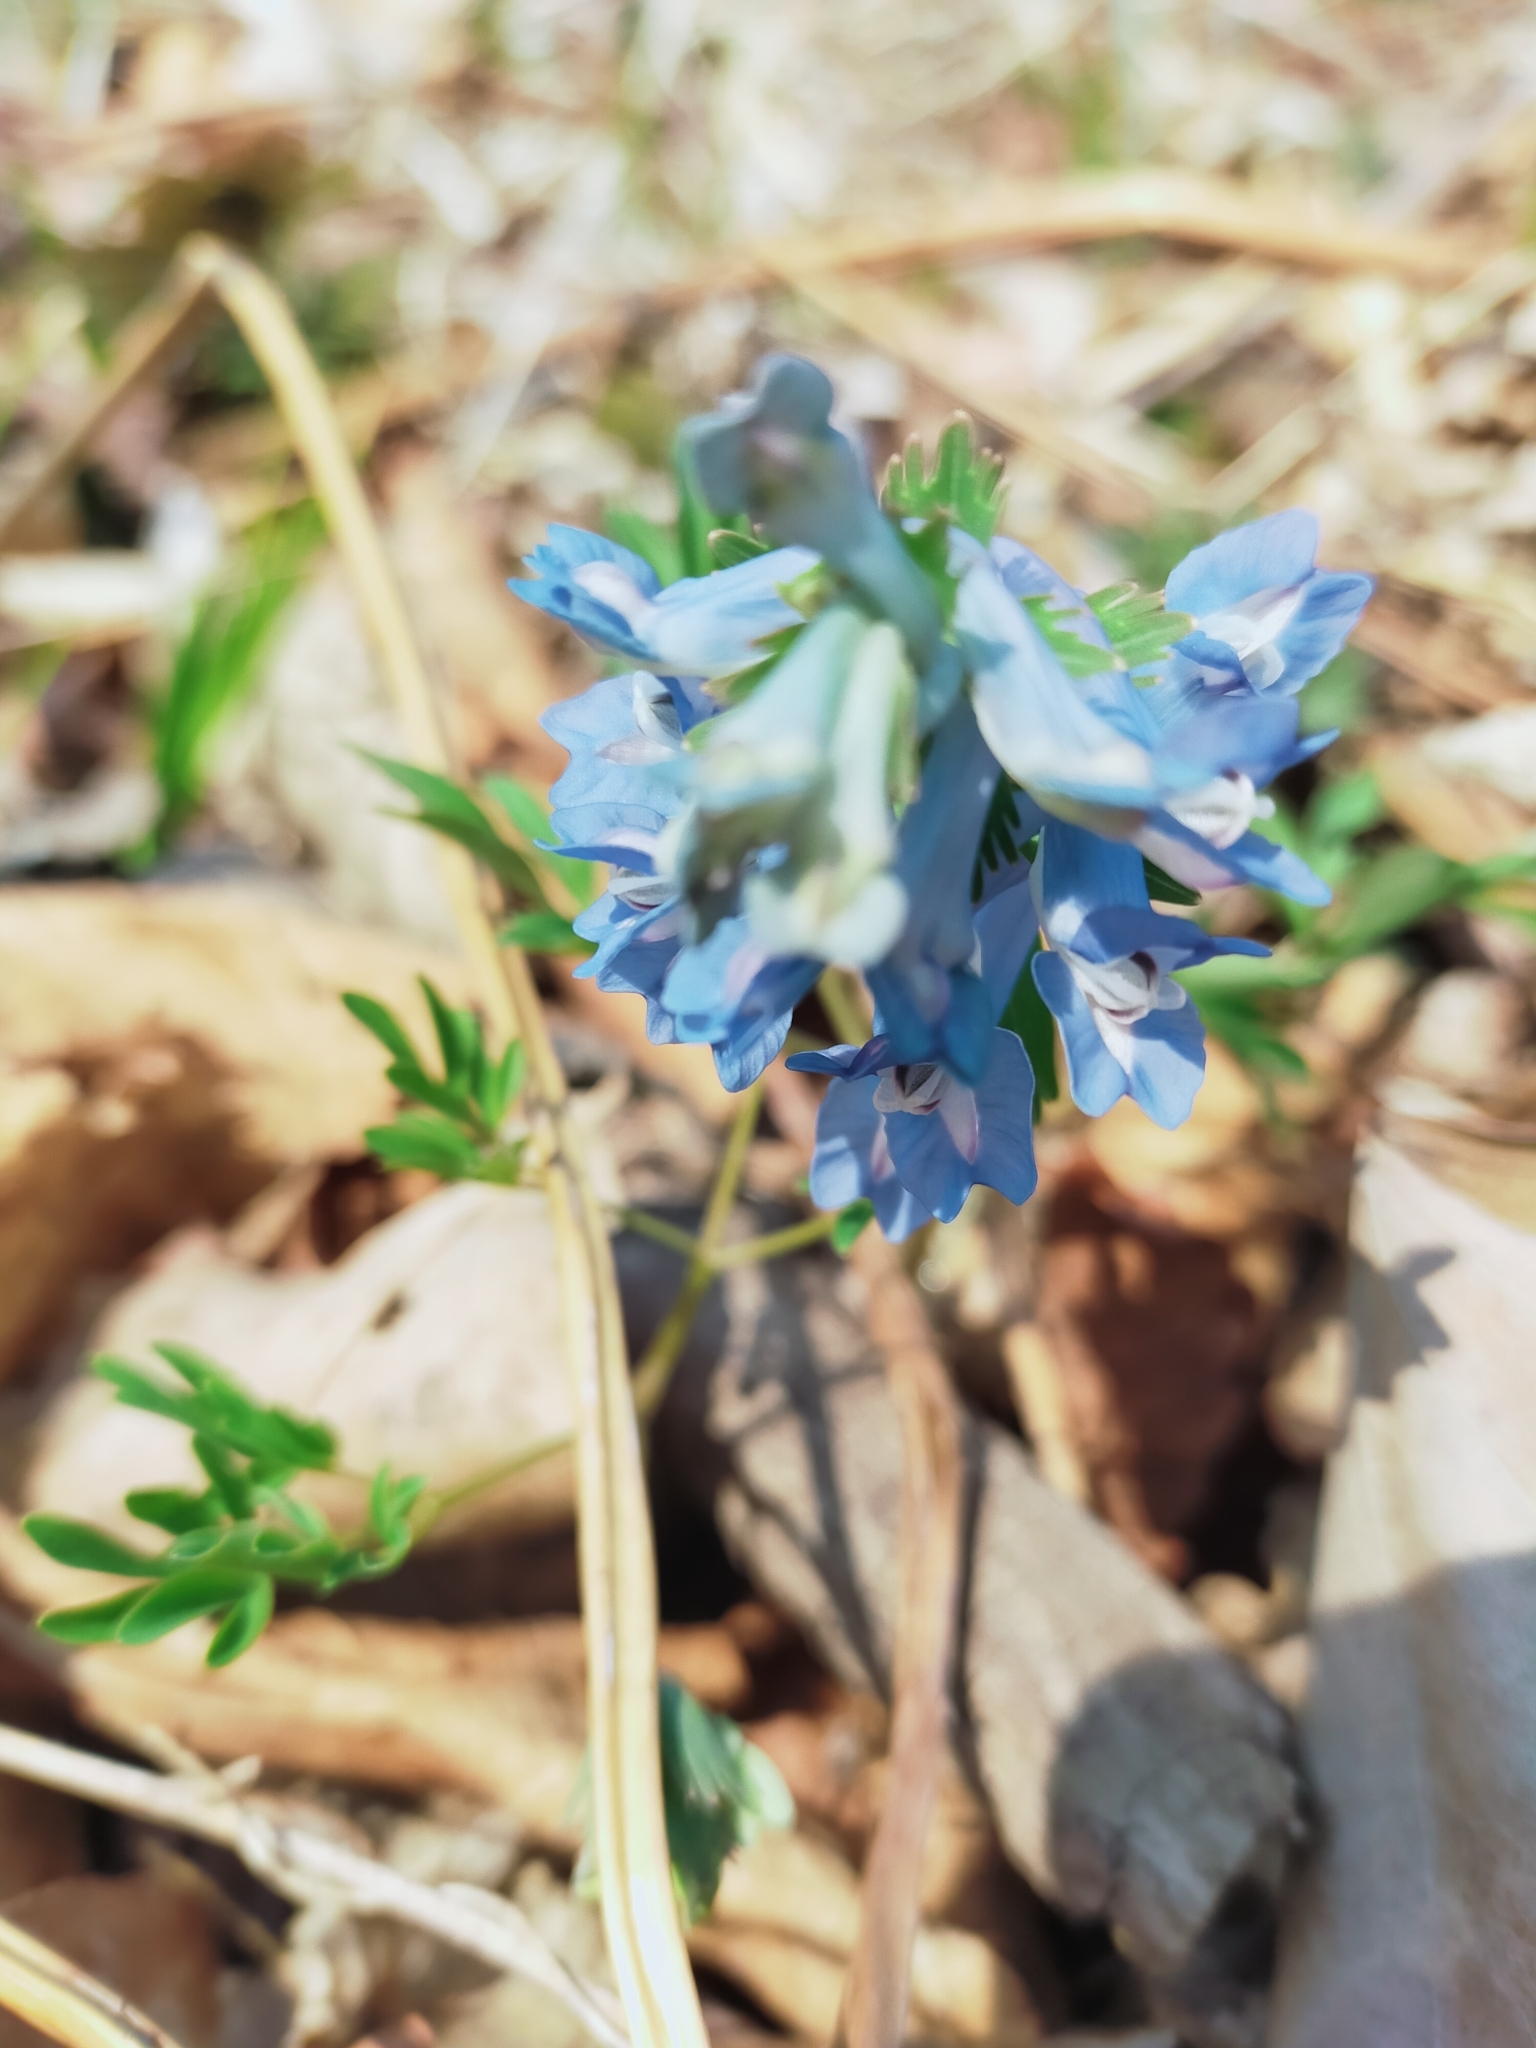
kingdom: Plantae
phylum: Tracheophyta
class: Magnoliopsida
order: Ranunculales
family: Papaveraceae
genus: Corydalis
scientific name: Corydalis ambigua
